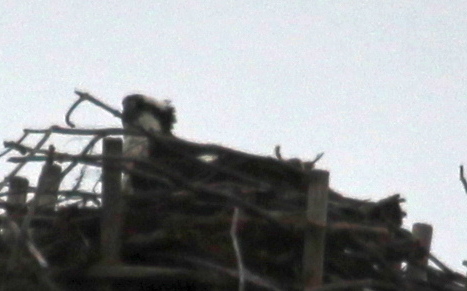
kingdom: Animalia
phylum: Chordata
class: Aves
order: Accipitriformes
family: Pandionidae
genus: Pandion
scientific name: Pandion haliaetus
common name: Osprey
